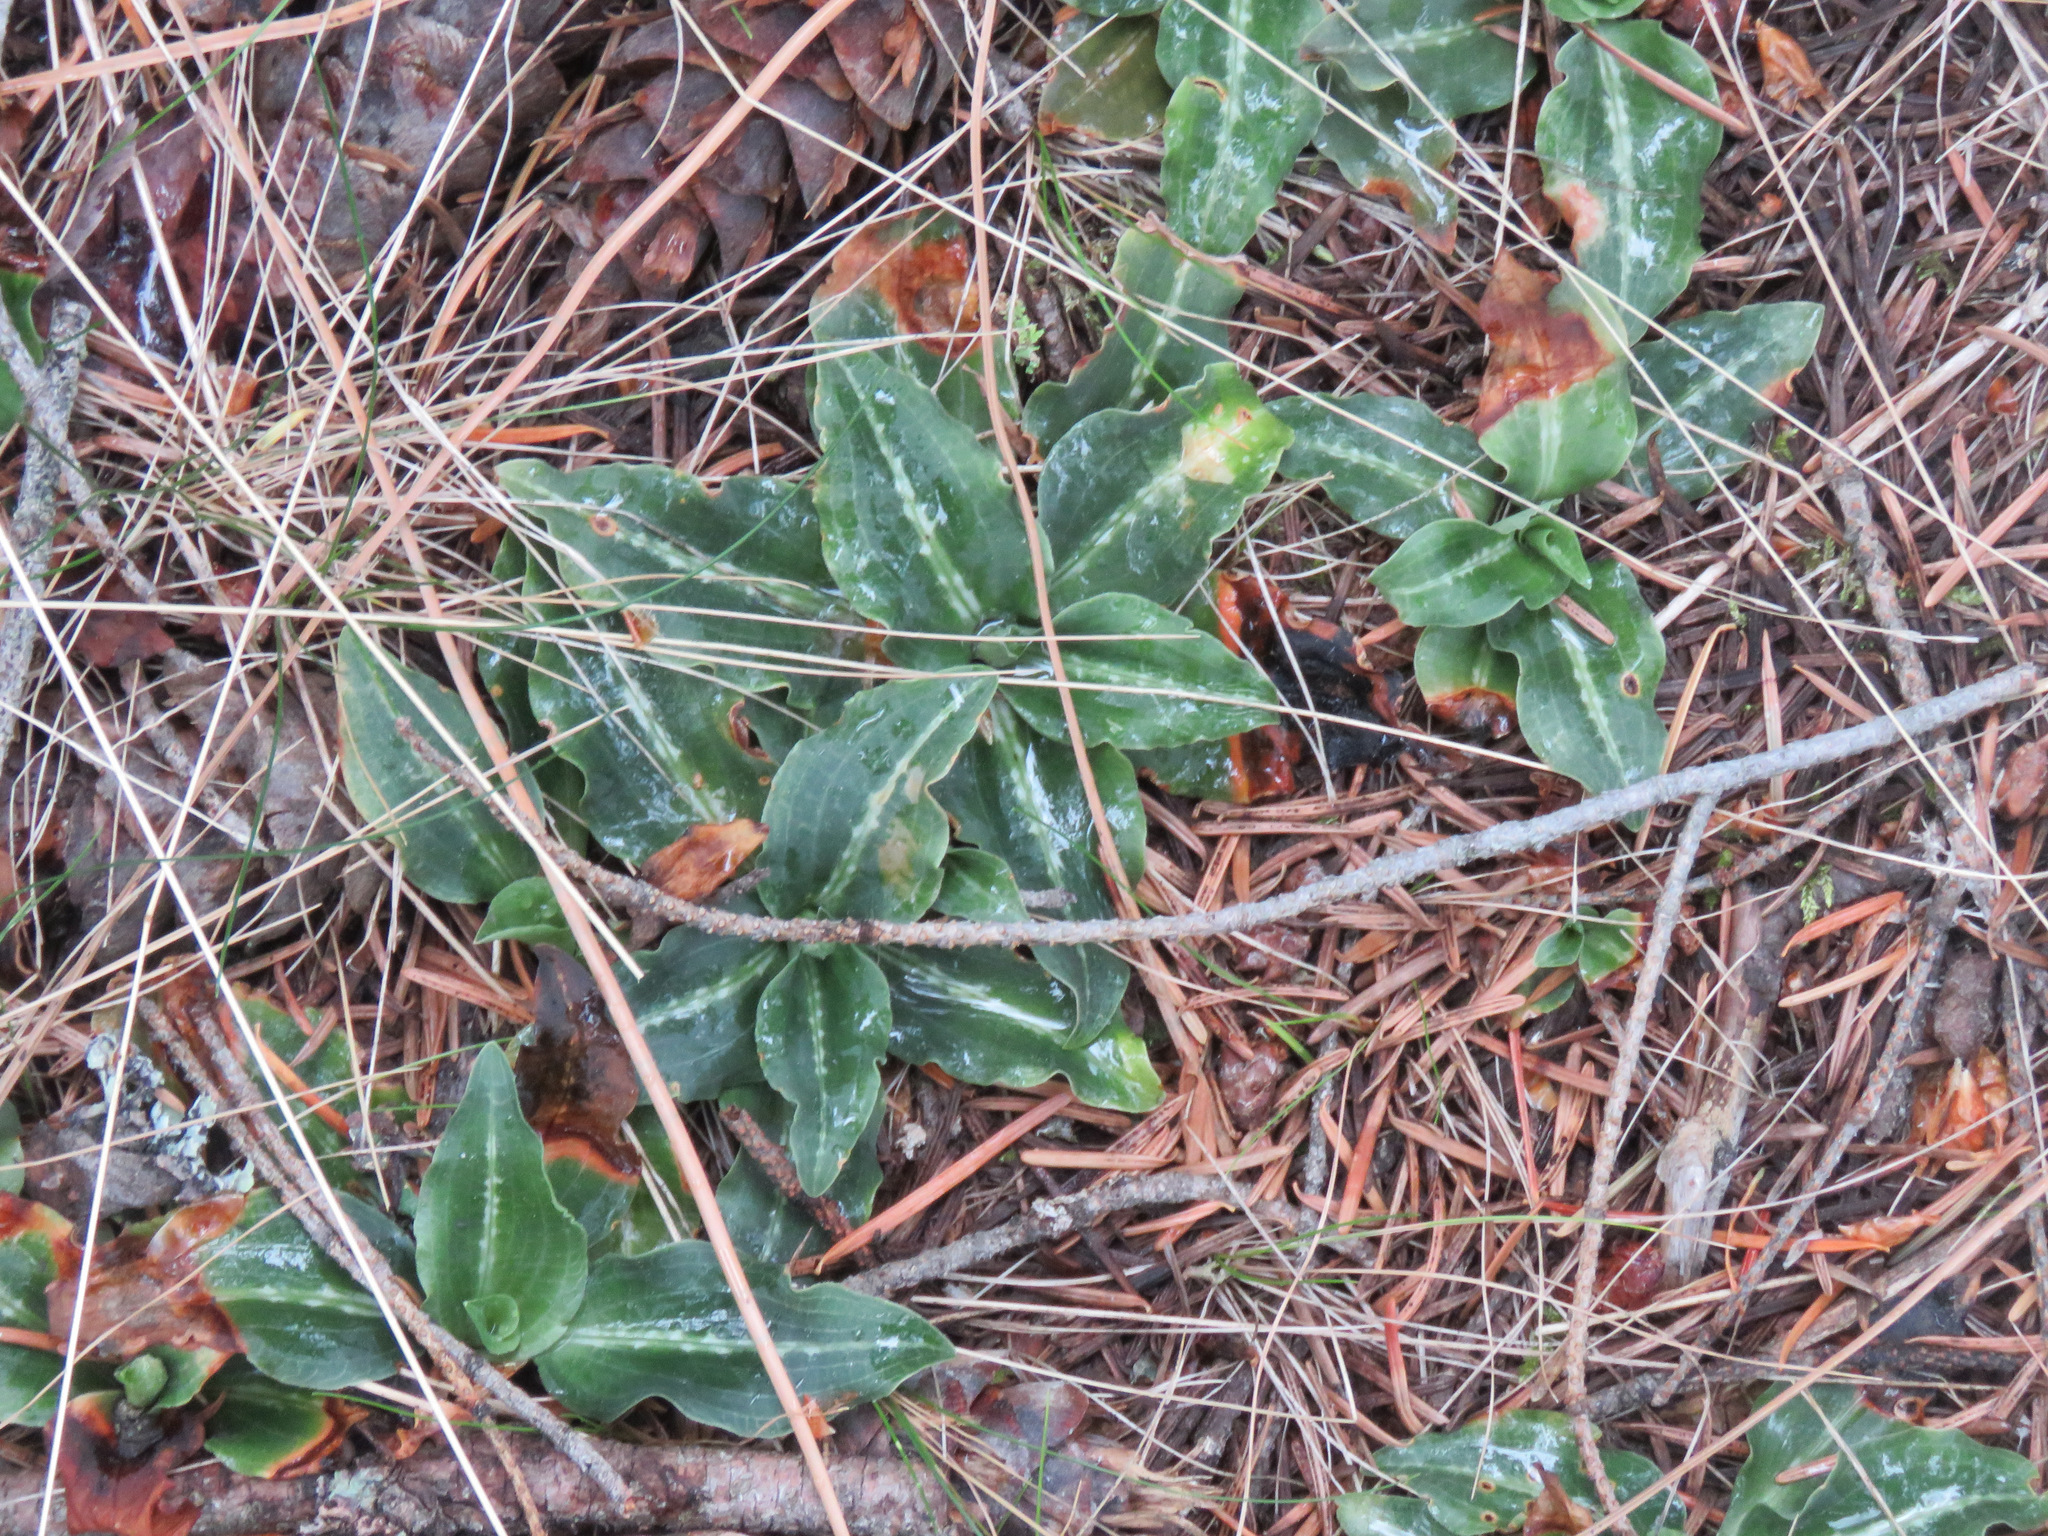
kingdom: Plantae
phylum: Tracheophyta
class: Liliopsida
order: Asparagales
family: Orchidaceae
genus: Goodyera
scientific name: Goodyera oblongifolia
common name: Giant rattlesnake-plantain
